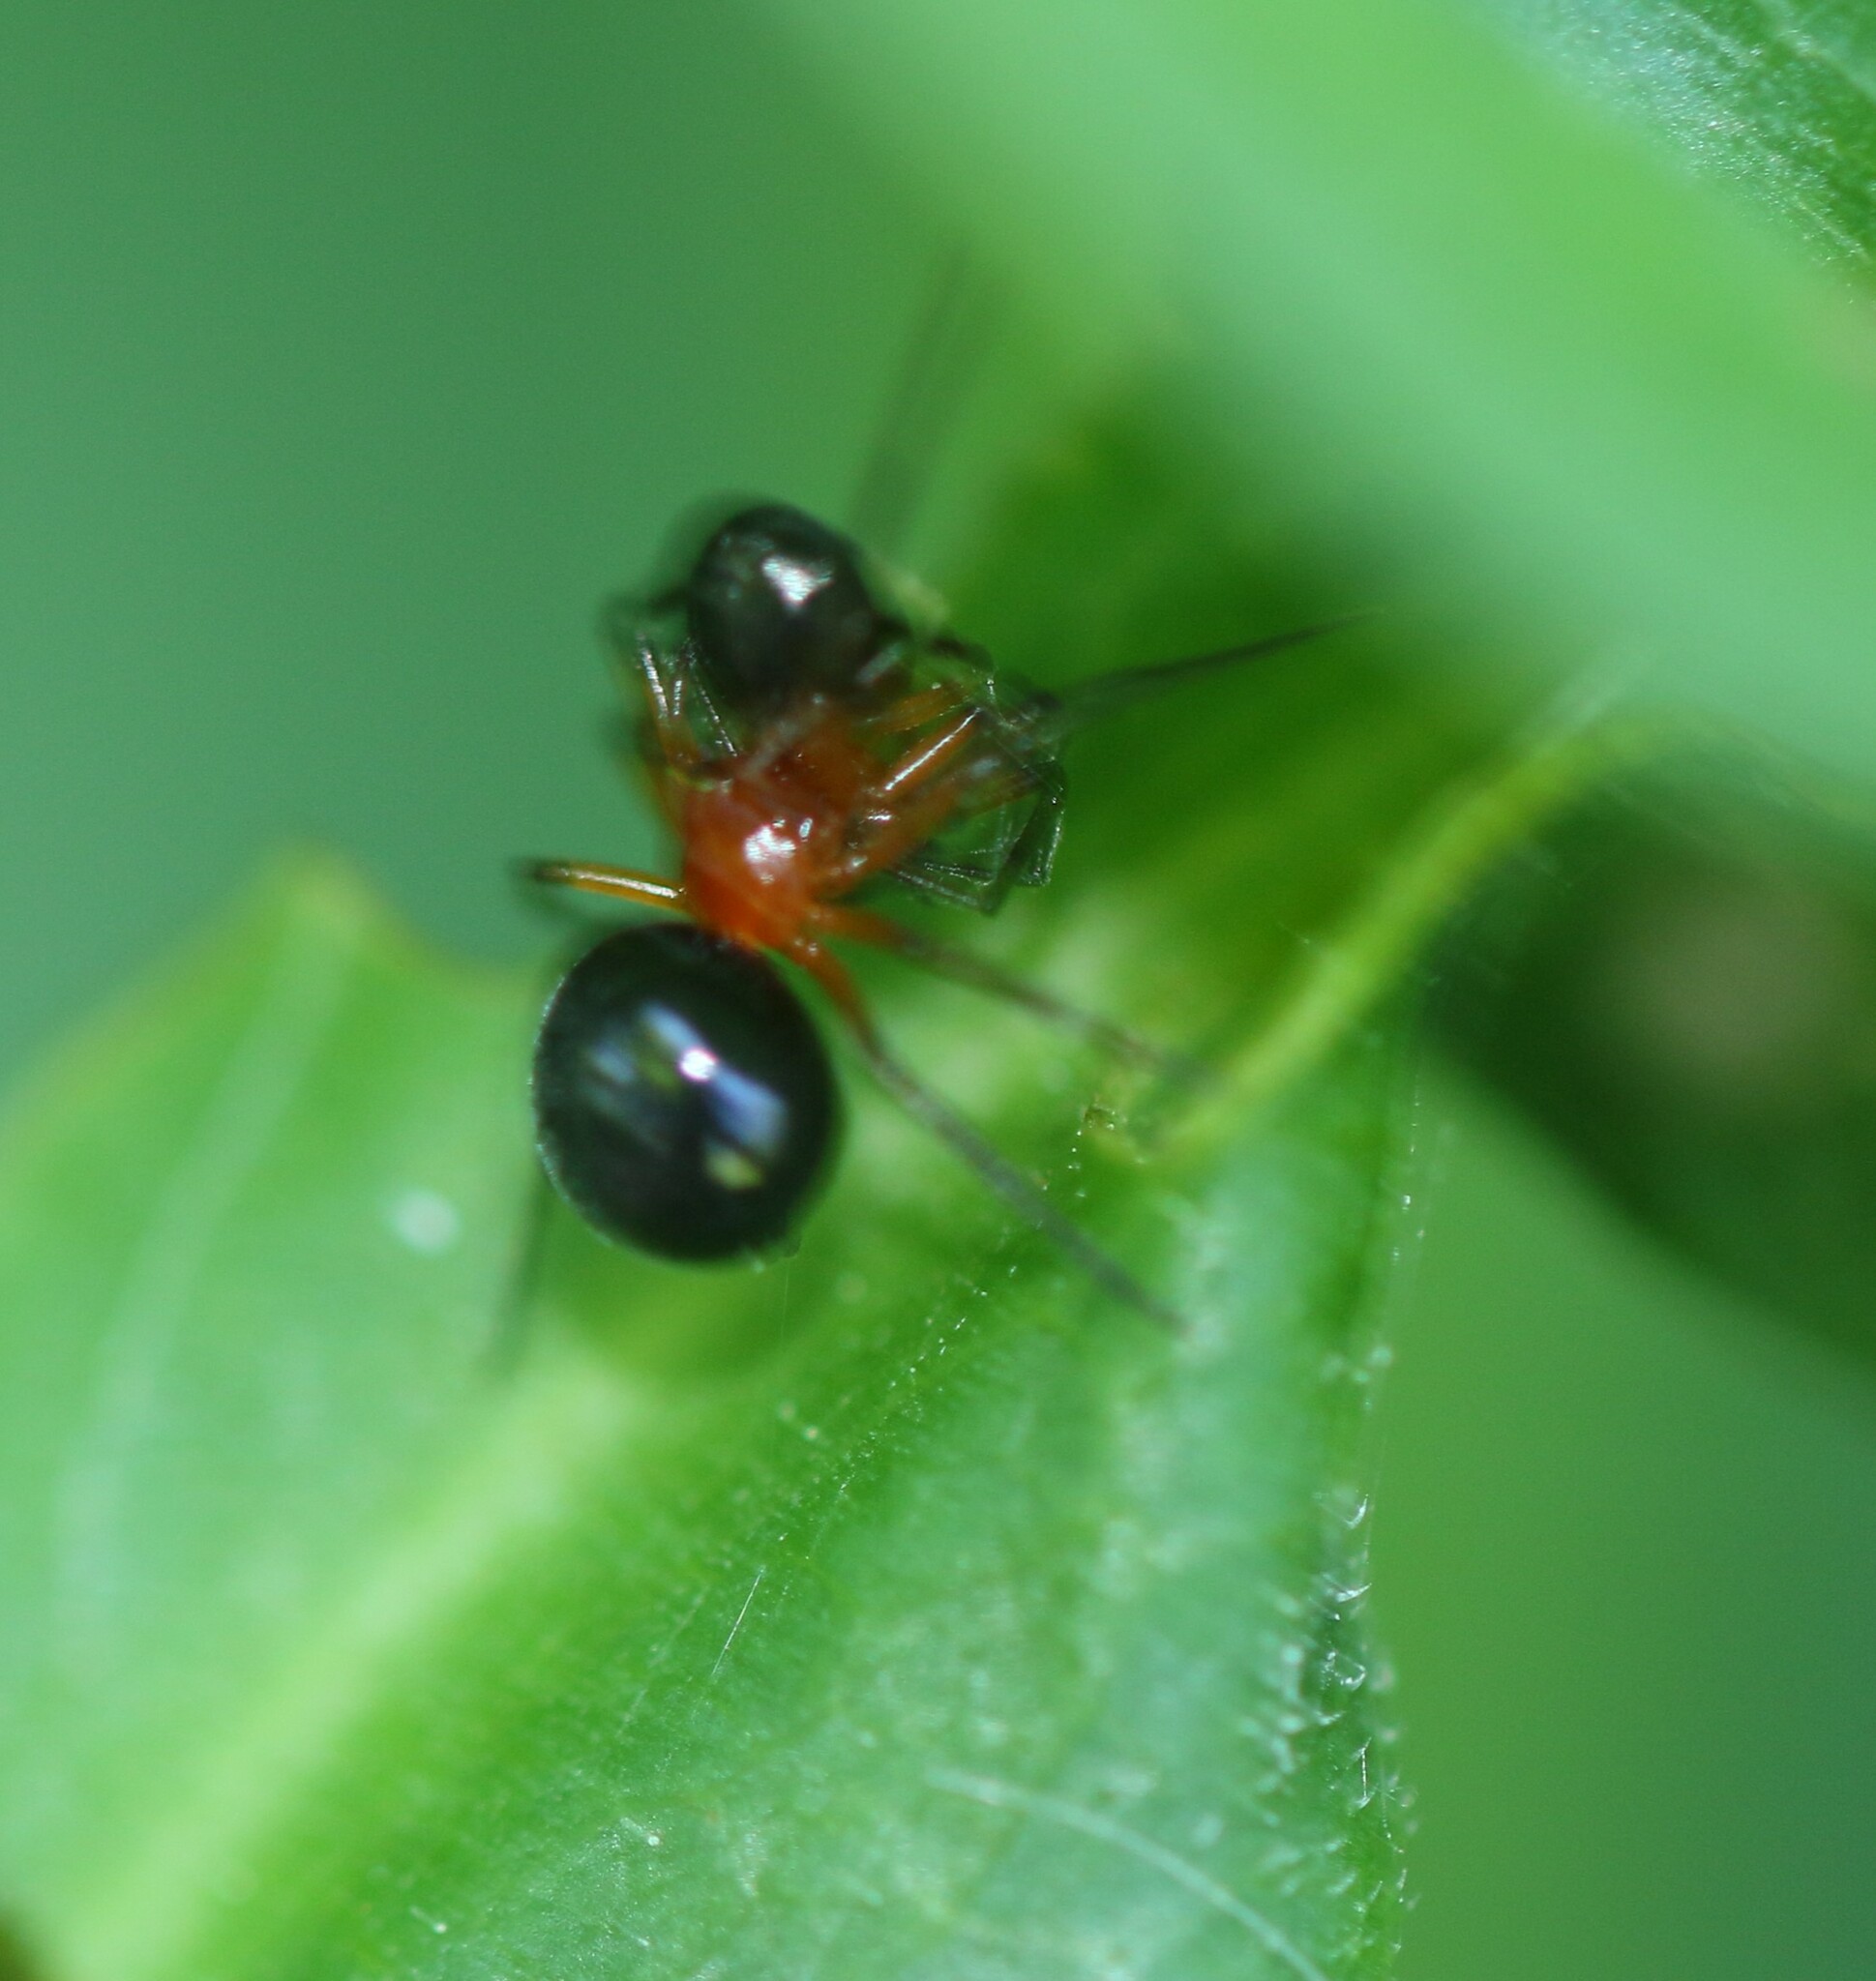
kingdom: Animalia
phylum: Arthropoda
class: Arachnida
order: Araneae
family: Linyphiidae
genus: Hypselistes
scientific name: Hypselistes florens
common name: Peatland sheetweb weaver
